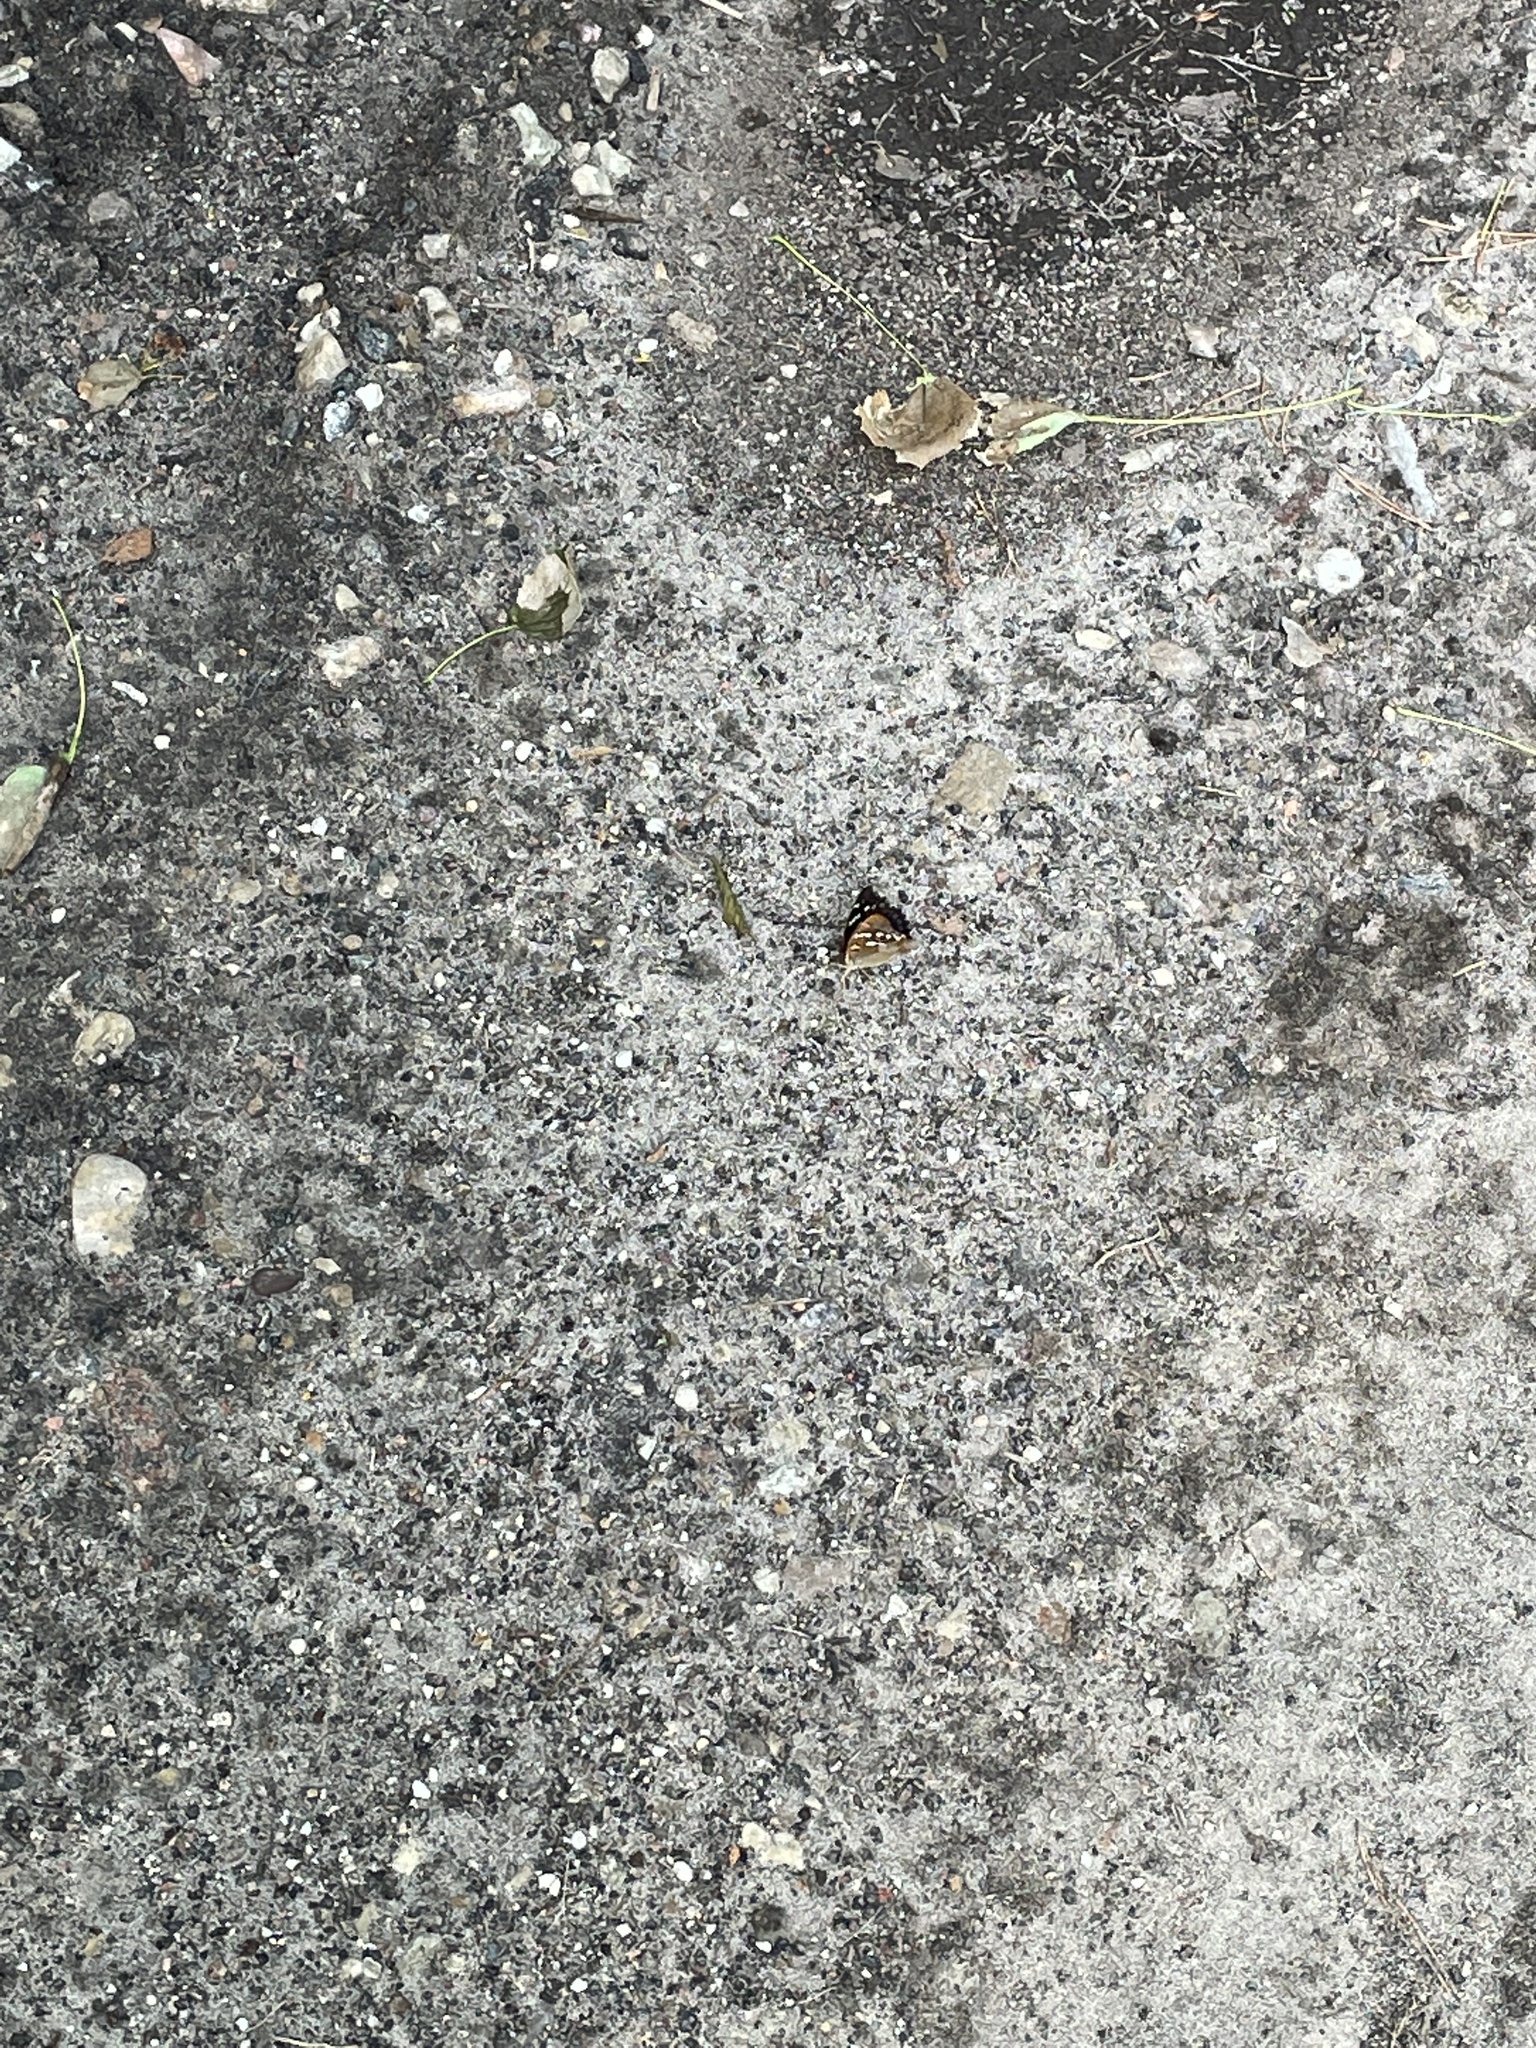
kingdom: Animalia
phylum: Arthropoda
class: Insecta
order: Lepidoptera
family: Nymphalidae
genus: Apatura
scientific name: Apatura iris
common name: Purple emperor
